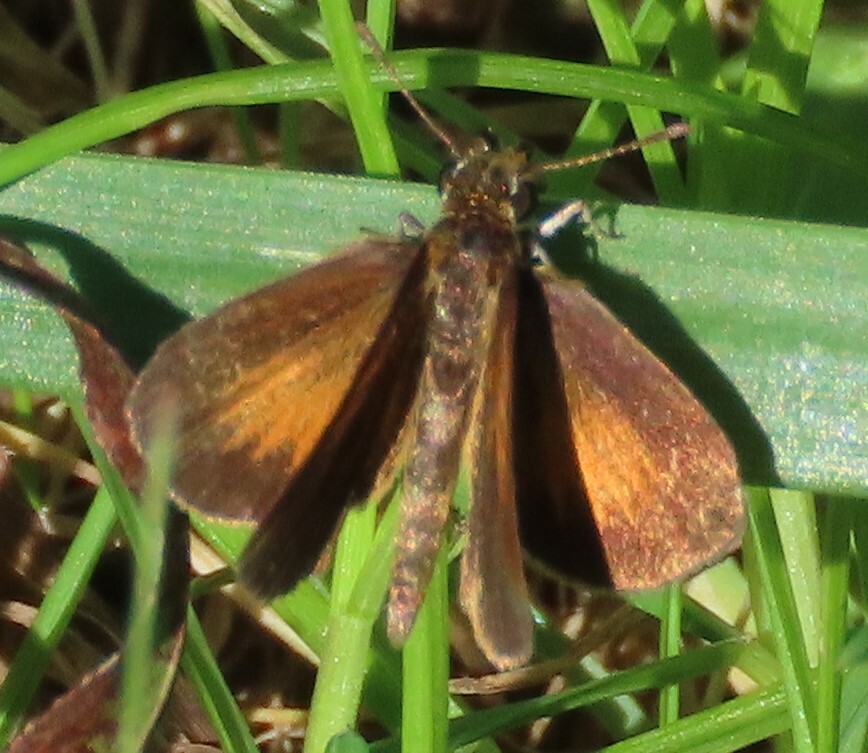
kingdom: Animalia
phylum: Arthropoda
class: Insecta
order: Lepidoptera
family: Hesperiidae
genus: Ancyloxypha
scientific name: Ancyloxypha numitor
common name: Least skipper
